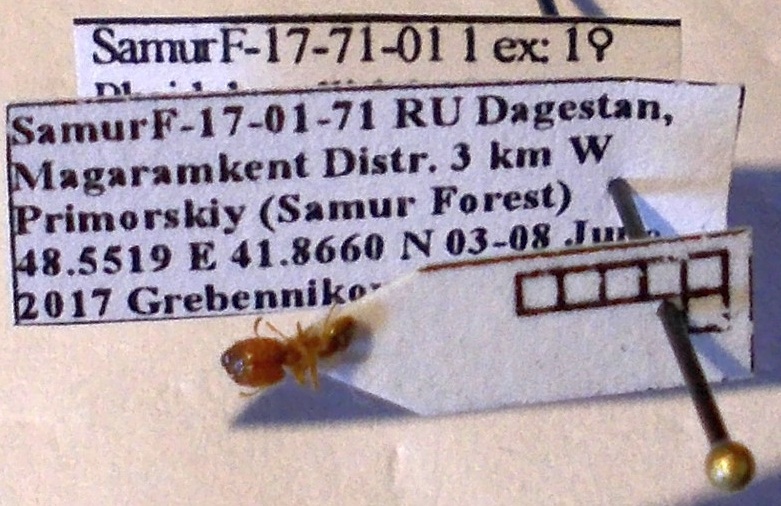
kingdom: Animalia
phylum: Arthropoda
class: Insecta
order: Hymenoptera
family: Formicidae
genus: Pheidole
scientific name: Pheidole pallidula
